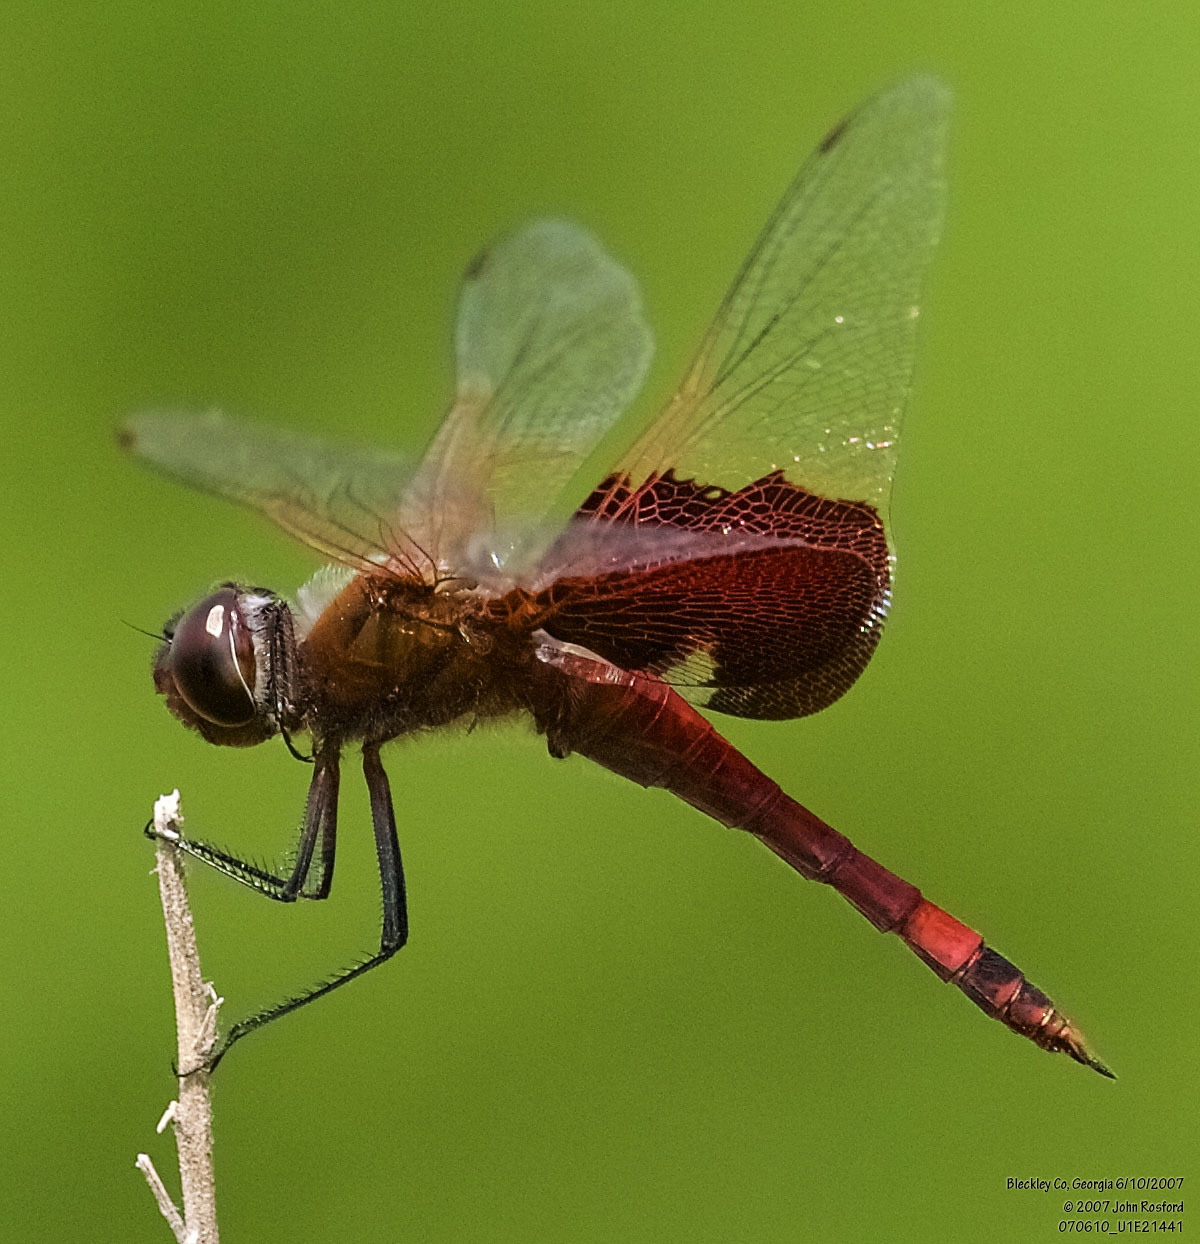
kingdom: Animalia
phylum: Arthropoda
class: Insecta
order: Odonata
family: Libellulidae
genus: Tramea
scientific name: Tramea carolina
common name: Carolina saddlebags
